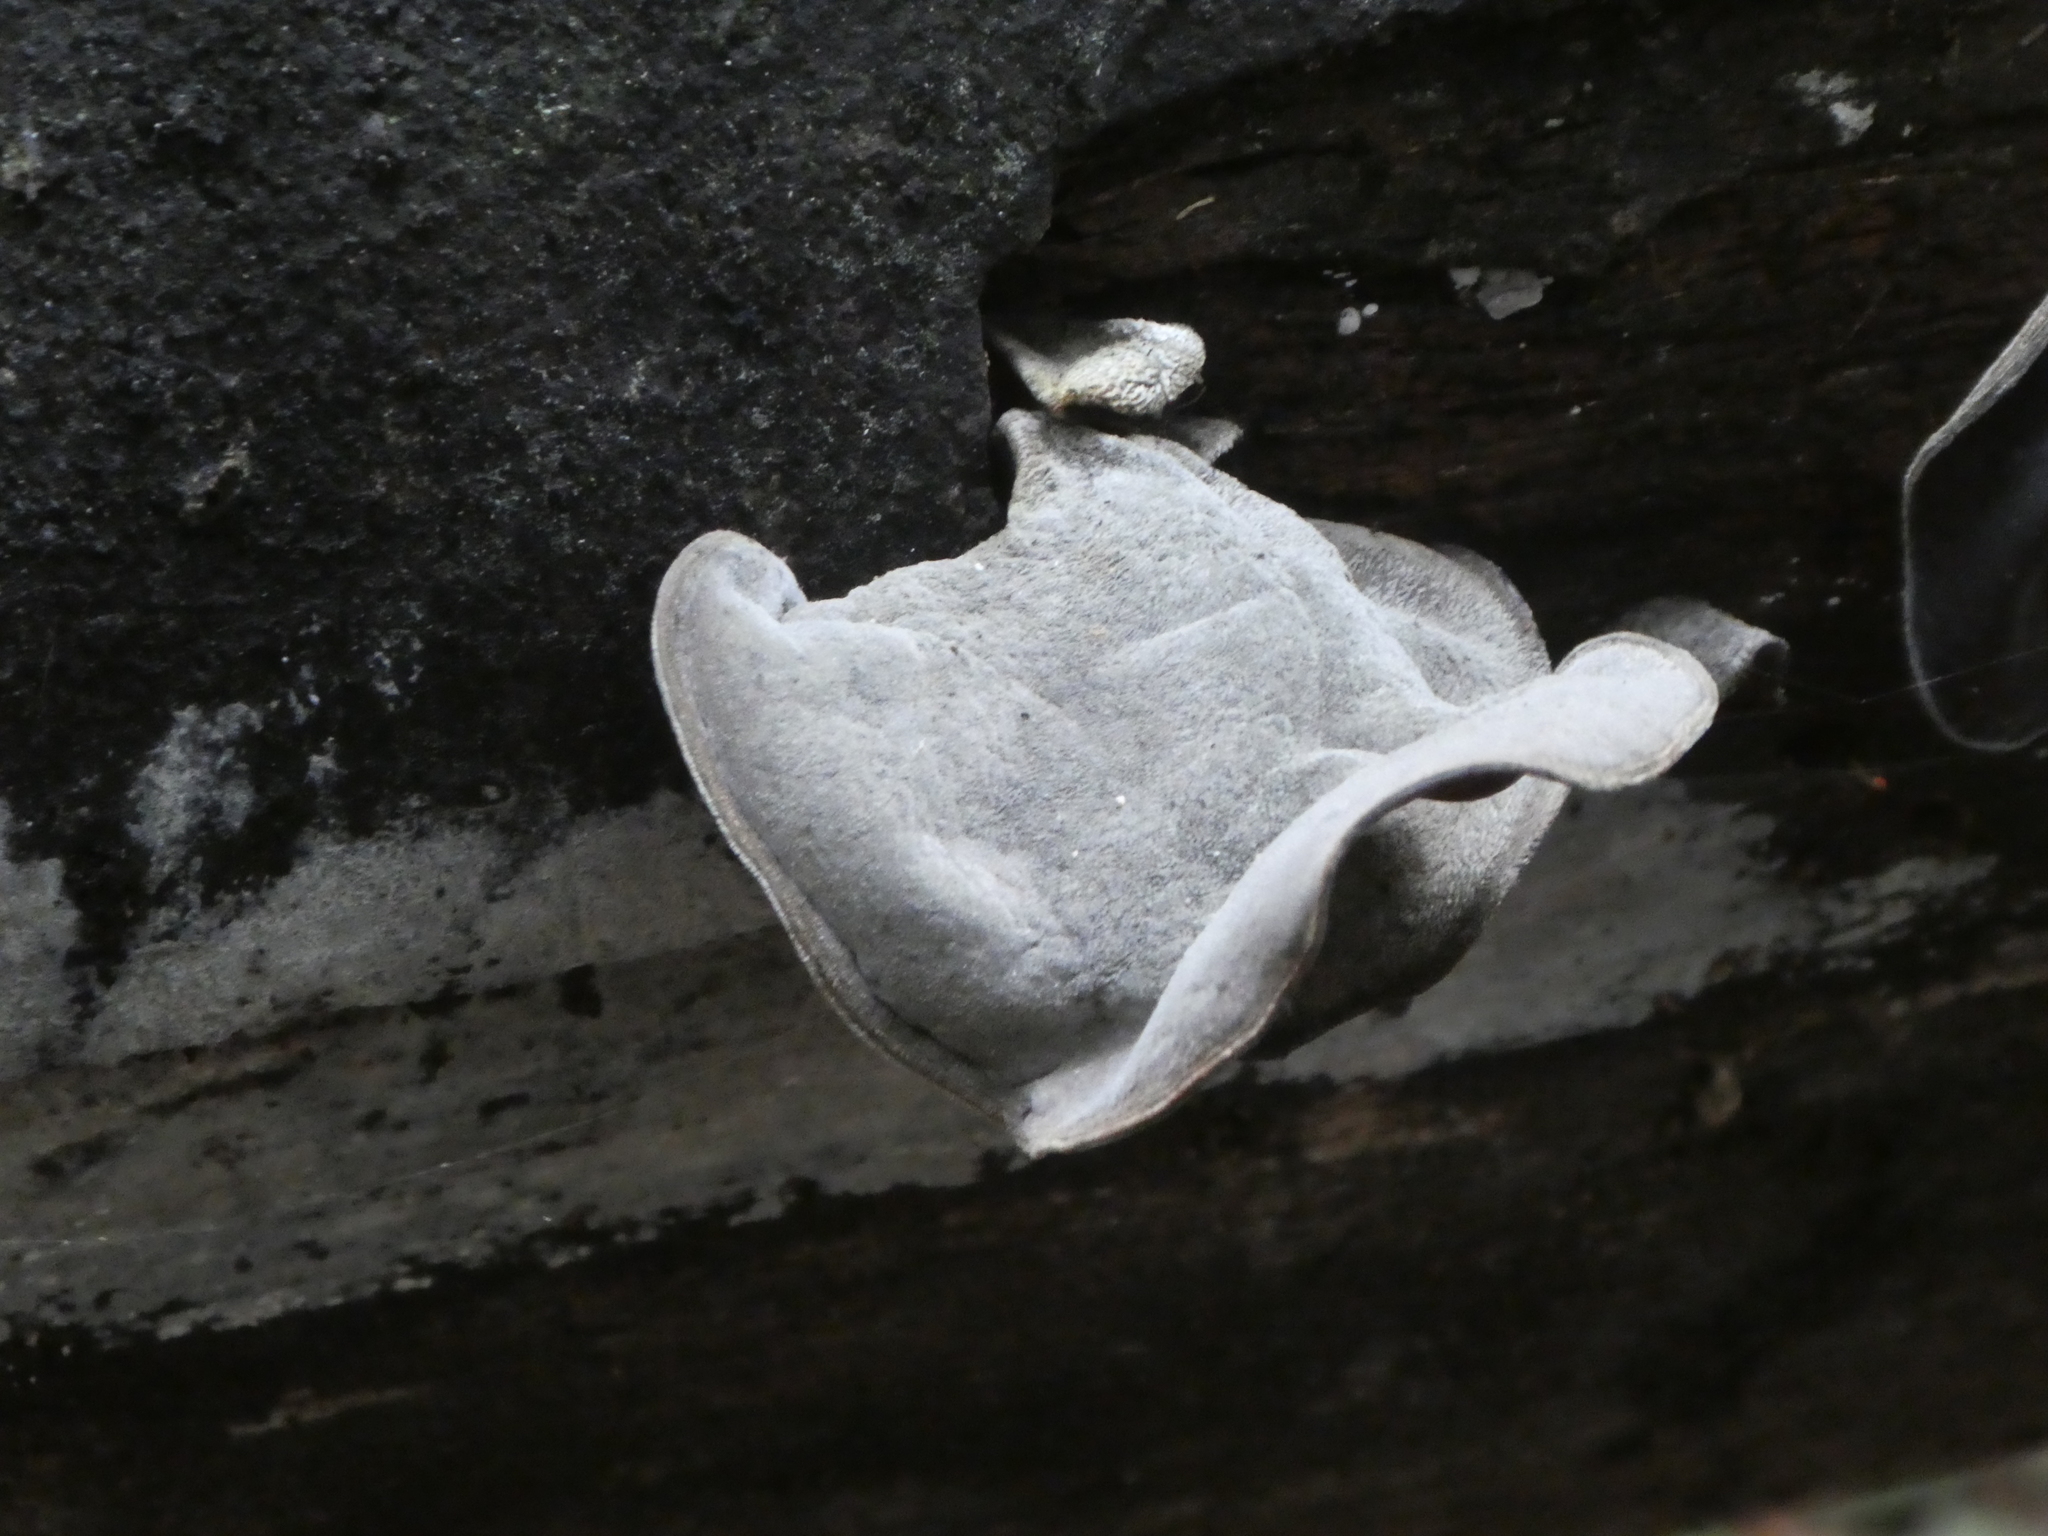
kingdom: Fungi
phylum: Basidiomycota
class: Agaricomycetes
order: Auriculariales
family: Auriculariaceae
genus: Auricularia
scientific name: Auricularia cornea
